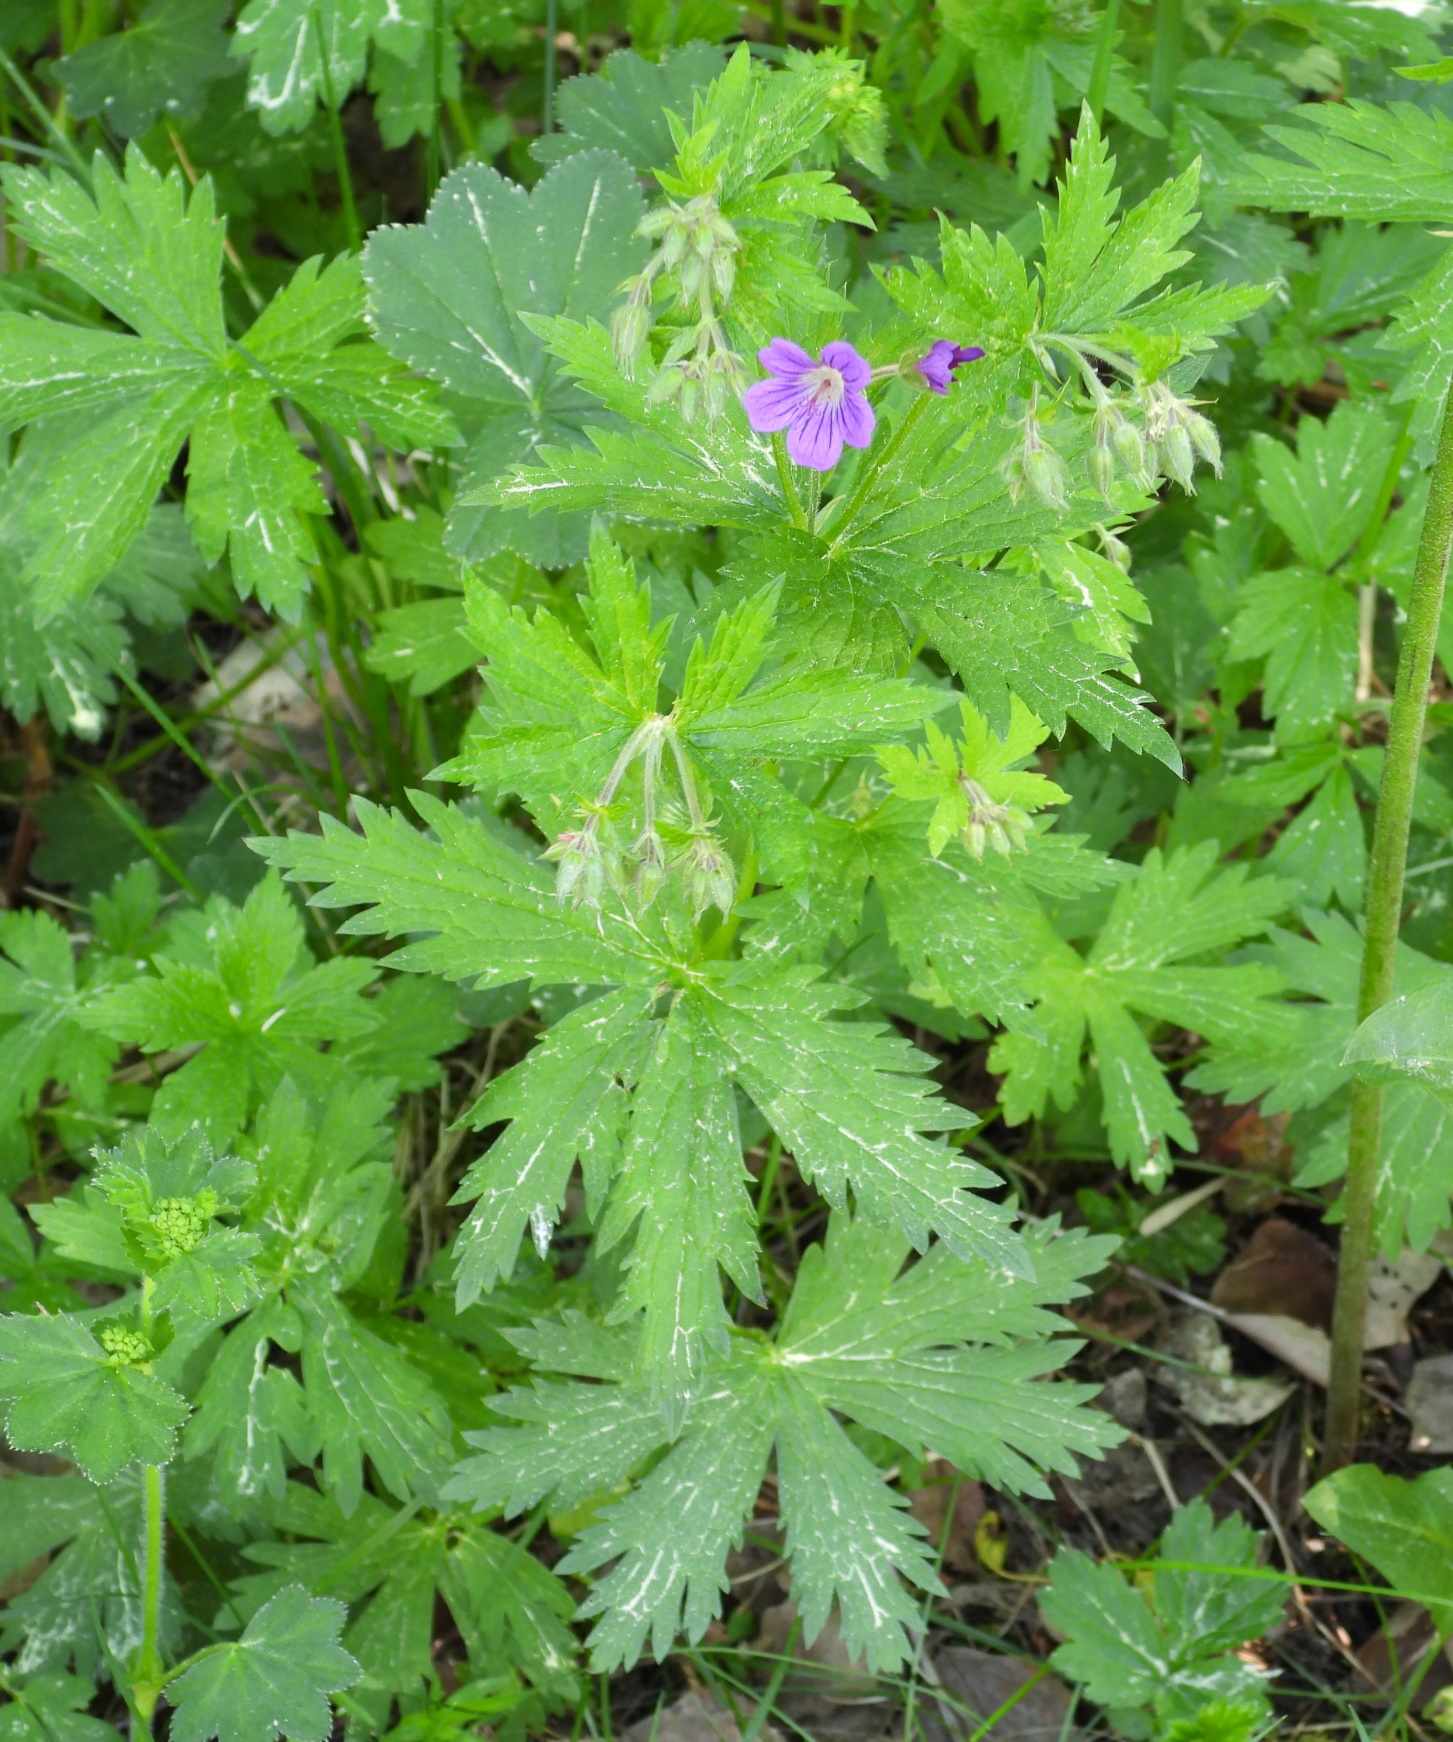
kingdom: Plantae
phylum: Tracheophyta
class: Magnoliopsida
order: Geraniales
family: Geraniaceae
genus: Geranium
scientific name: Geranium sylvaticum
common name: Wood crane's-bill
